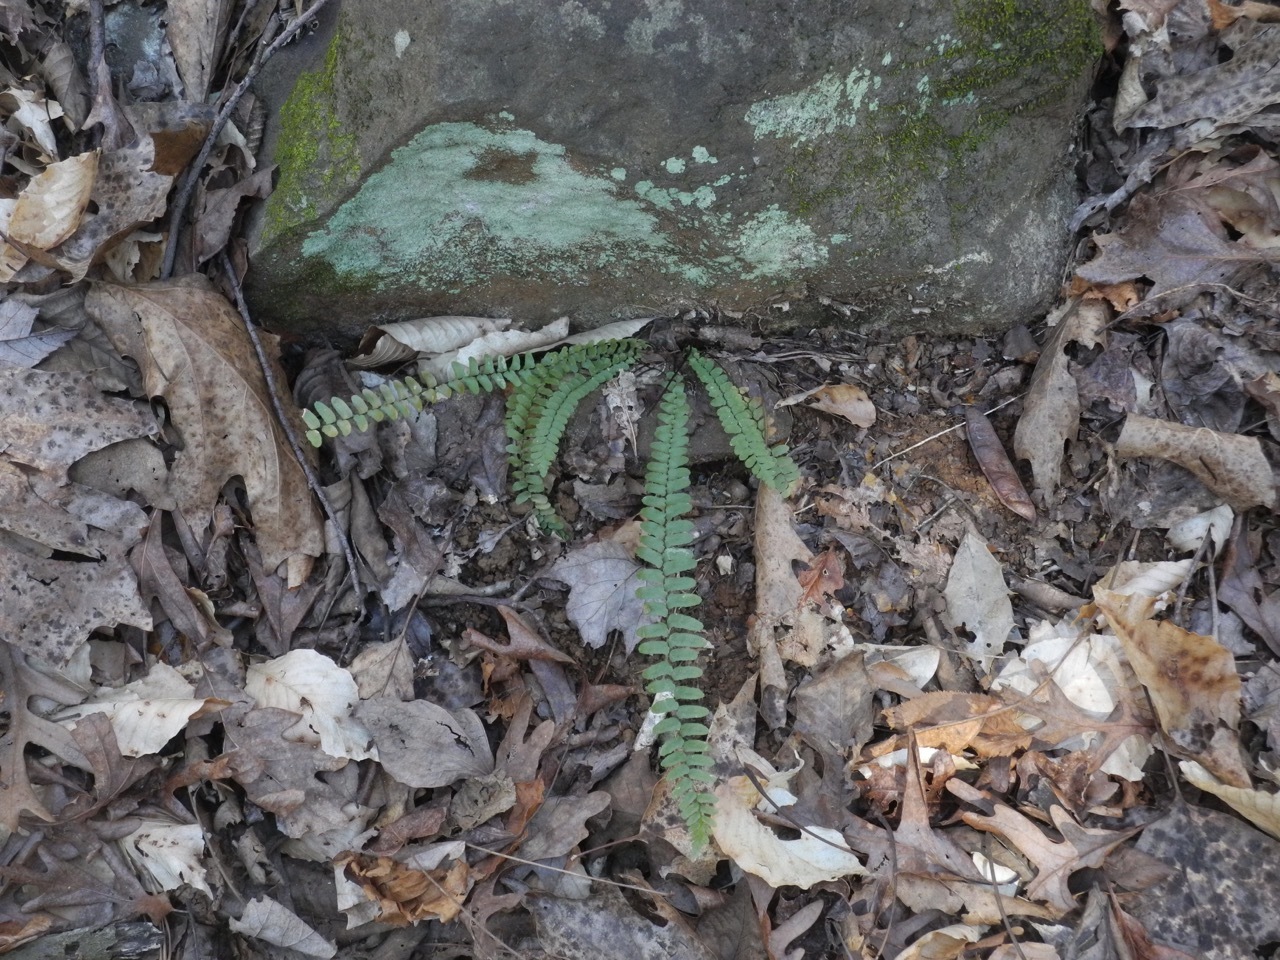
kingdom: Plantae
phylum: Tracheophyta
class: Polypodiopsida
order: Polypodiales
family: Aspleniaceae
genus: Asplenium
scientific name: Asplenium platyneuron
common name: Ebony spleenwort
